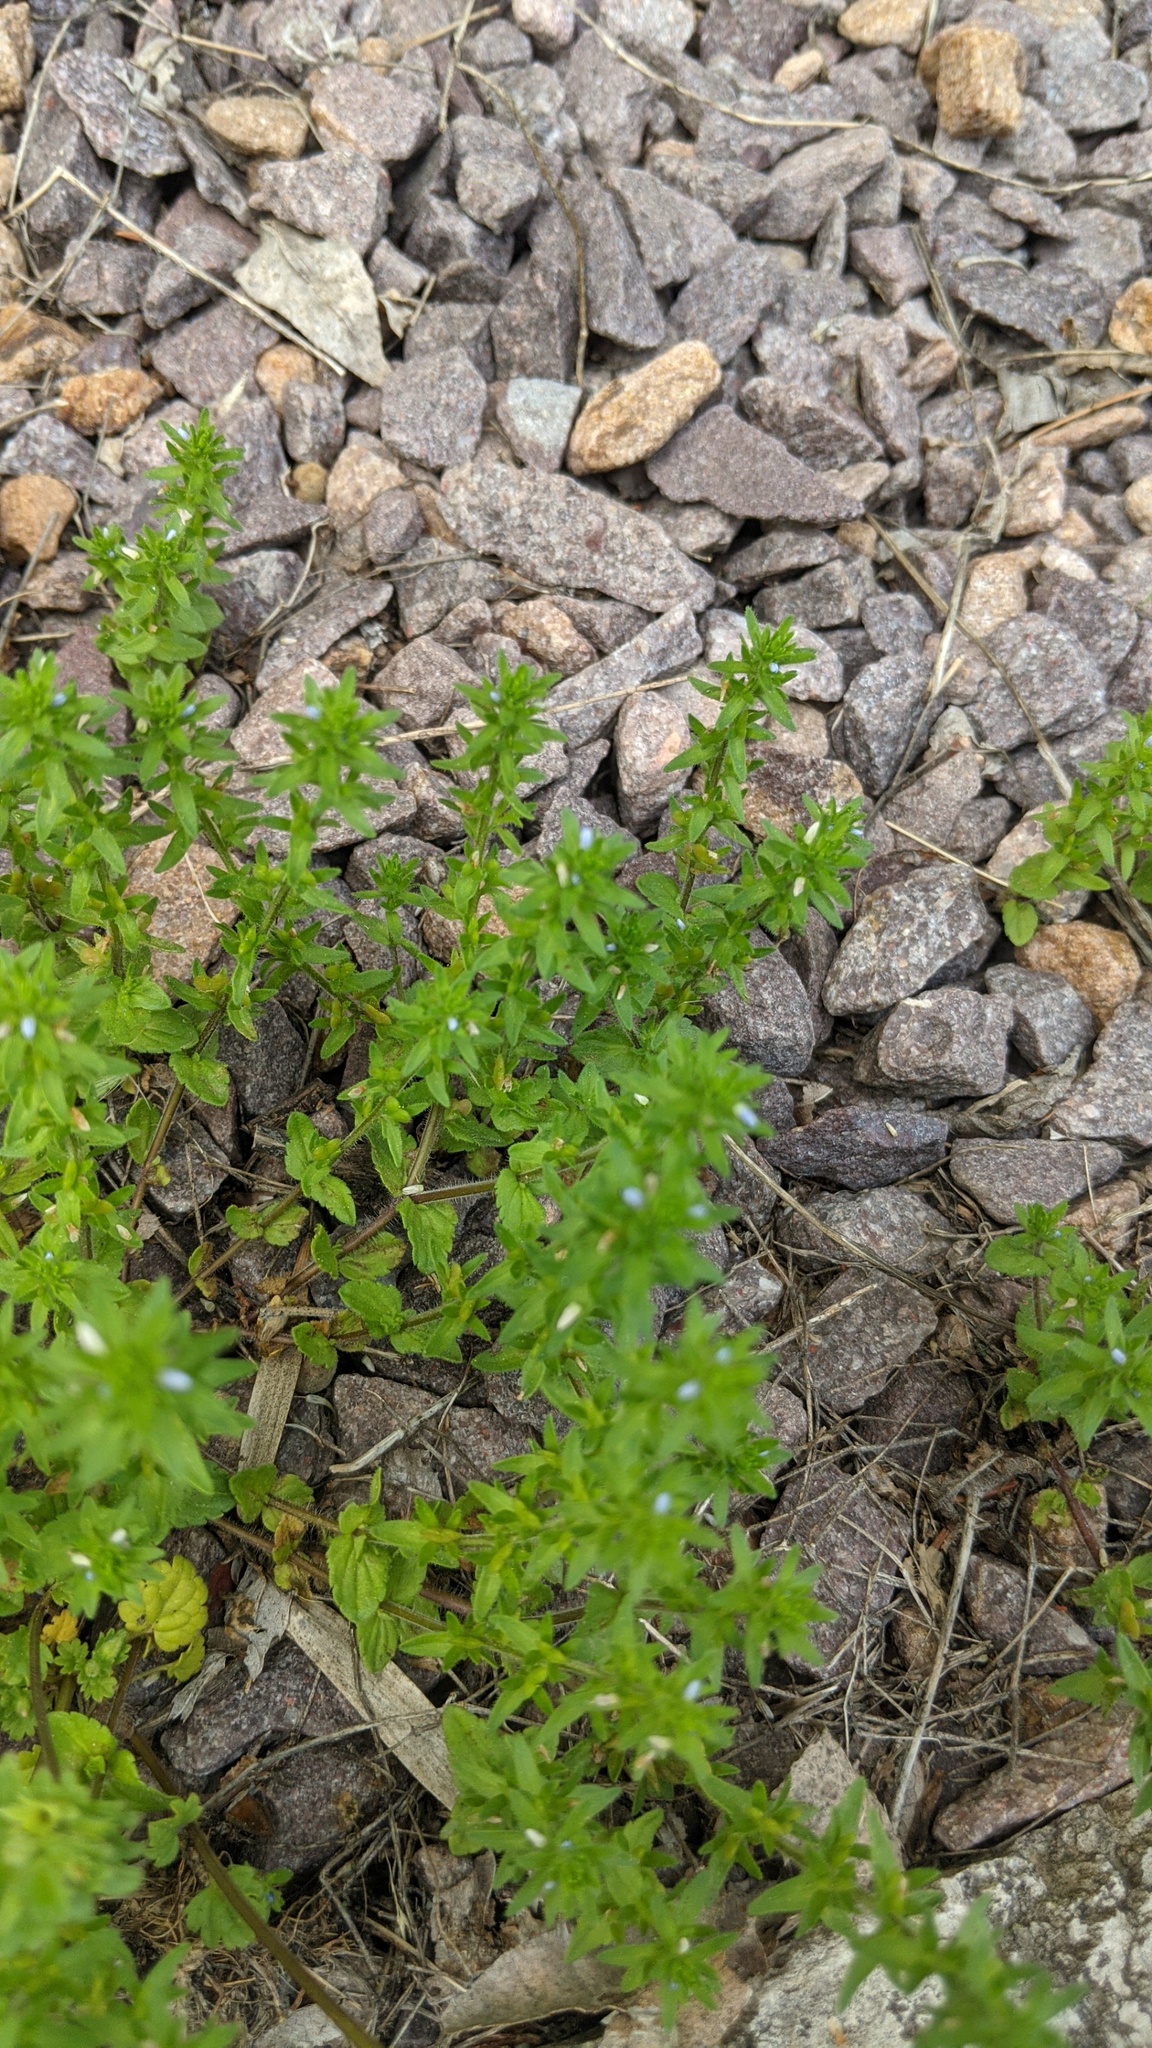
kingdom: Plantae
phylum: Tracheophyta
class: Magnoliopsida
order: Lamiales
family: Plantaginaceae
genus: Veronica
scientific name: Veronica arvensis
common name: Corn speedwell
